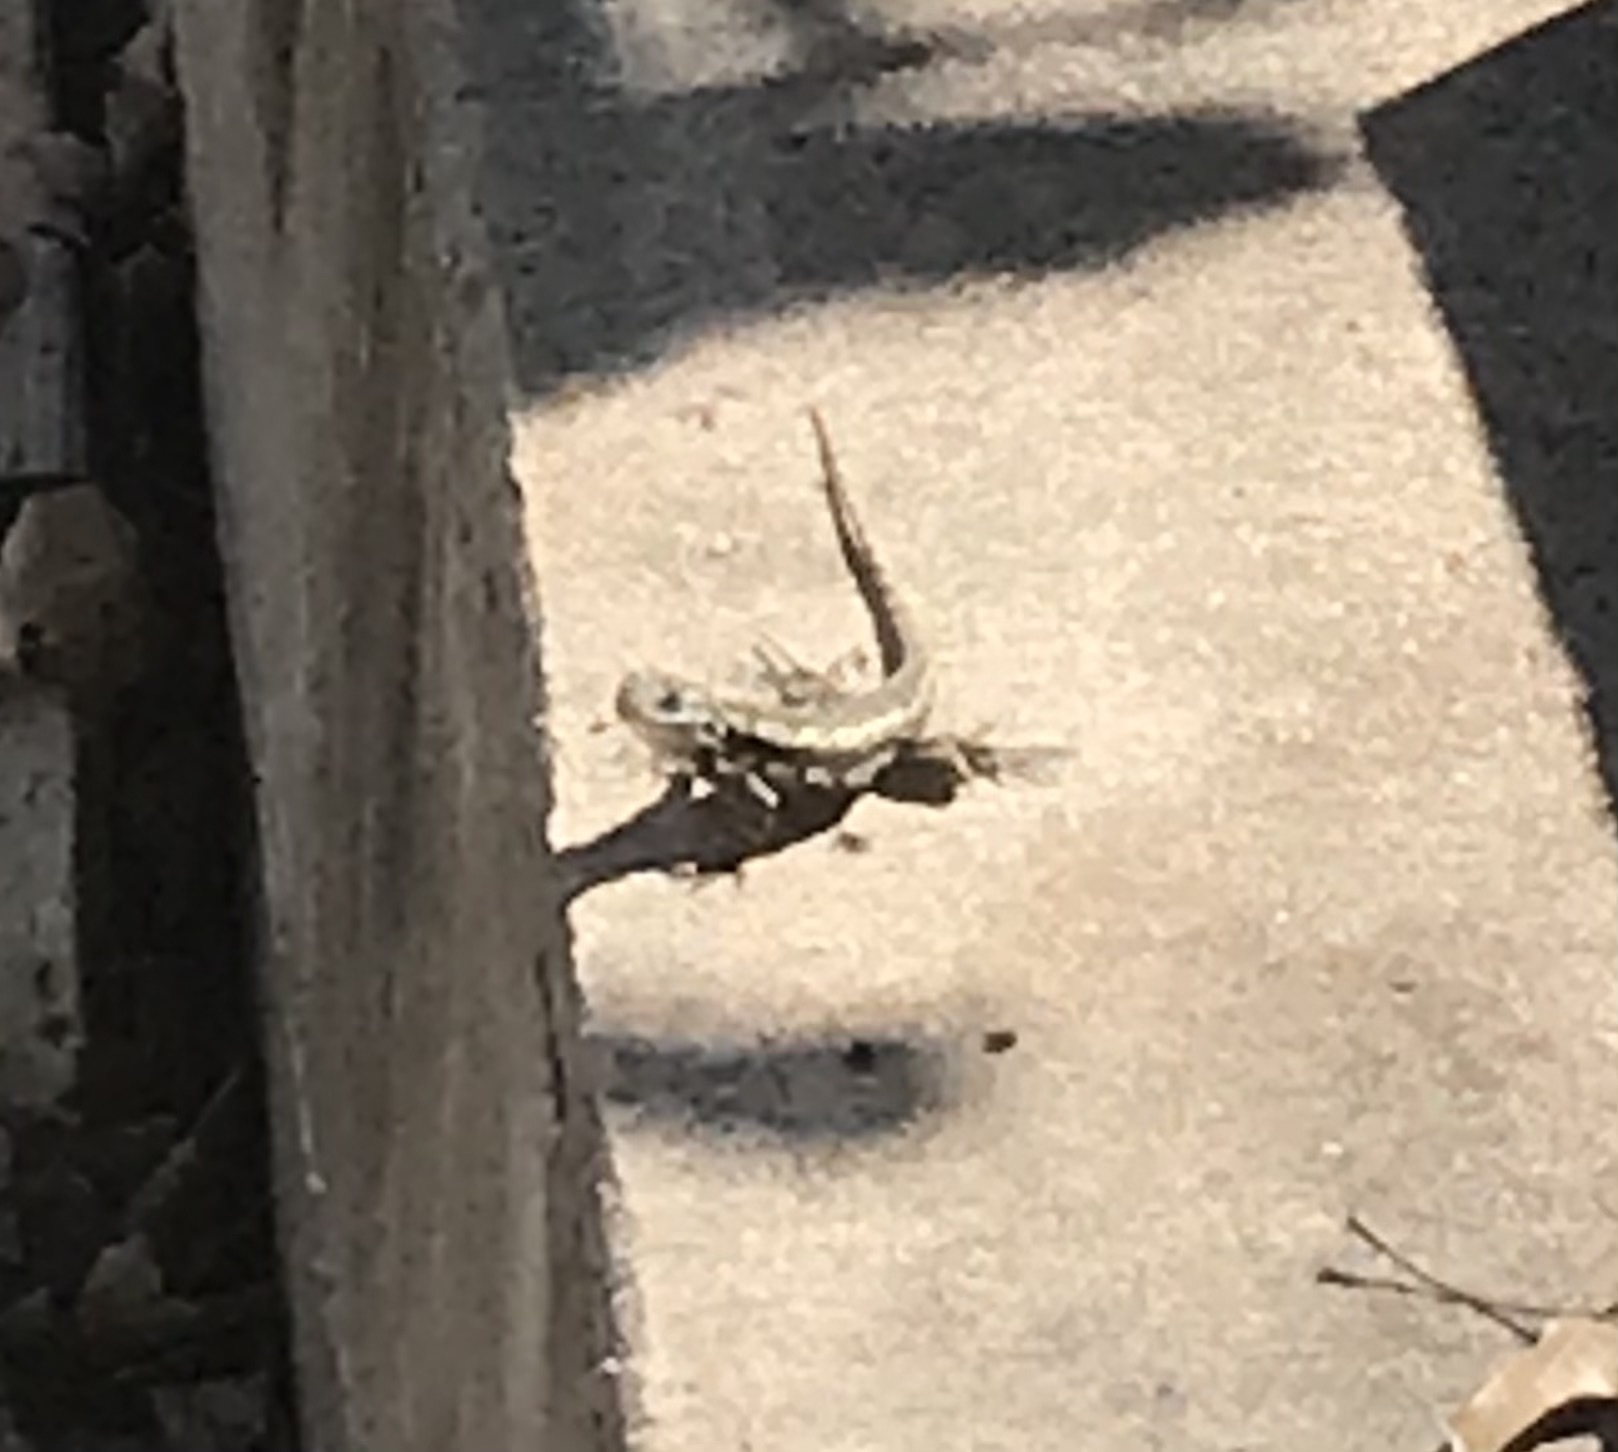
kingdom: Animalia
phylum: Chordata
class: Squamata
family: Phrynosomatidae
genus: Sceloporus
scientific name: Sceloporus olivaceus
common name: Texas spiny lizard
